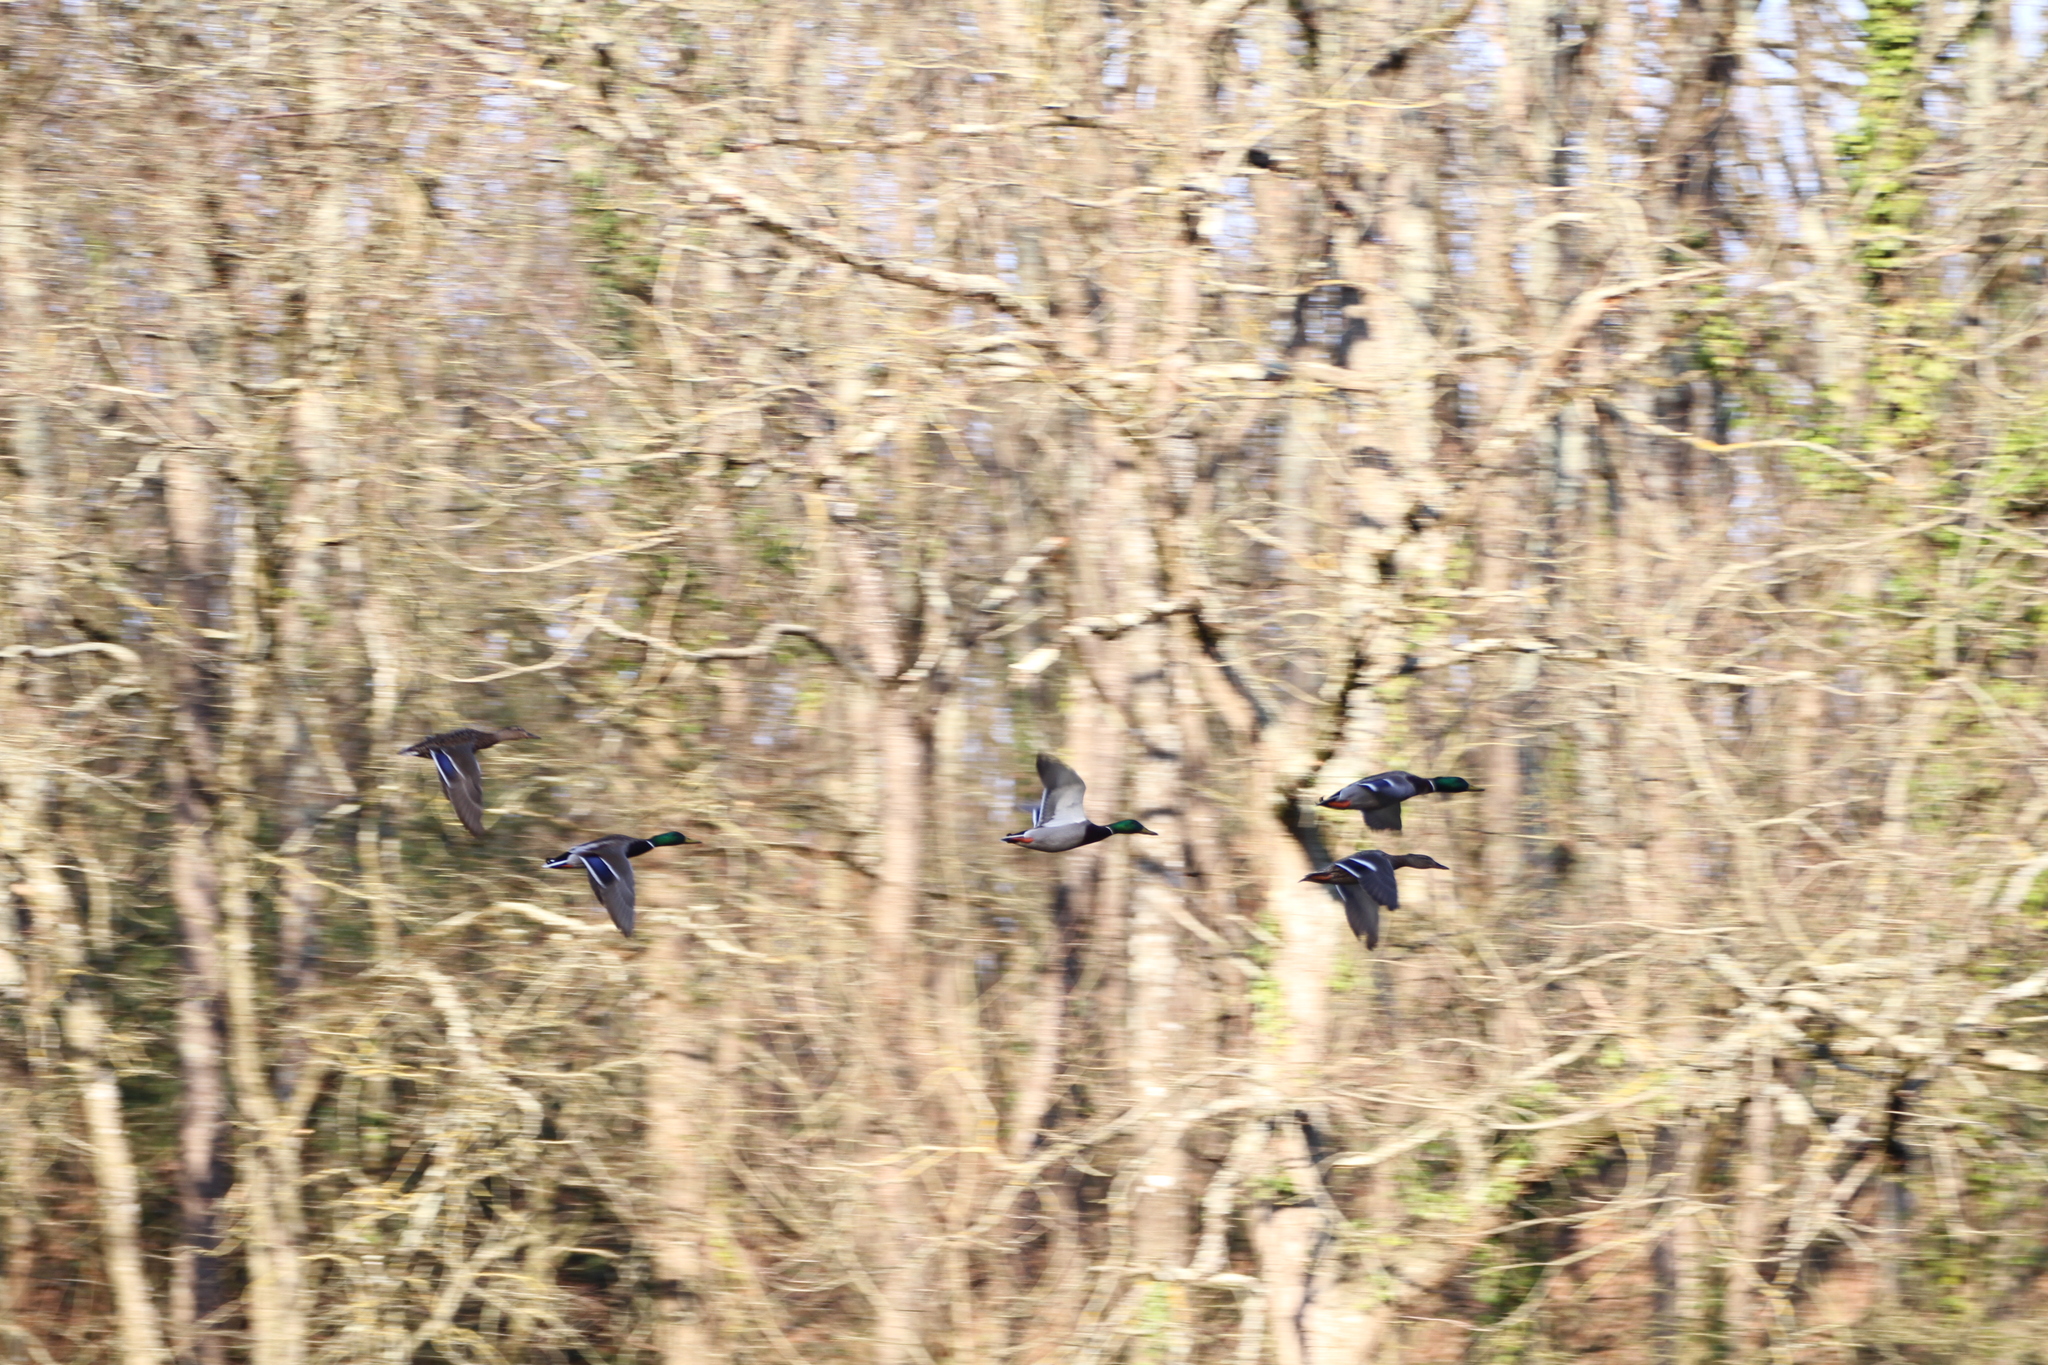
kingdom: Animalia
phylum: Chordata
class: Aves
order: Anseriformes
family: Anatidae
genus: Anas
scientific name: Anas platyrhynchos
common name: Mallard
